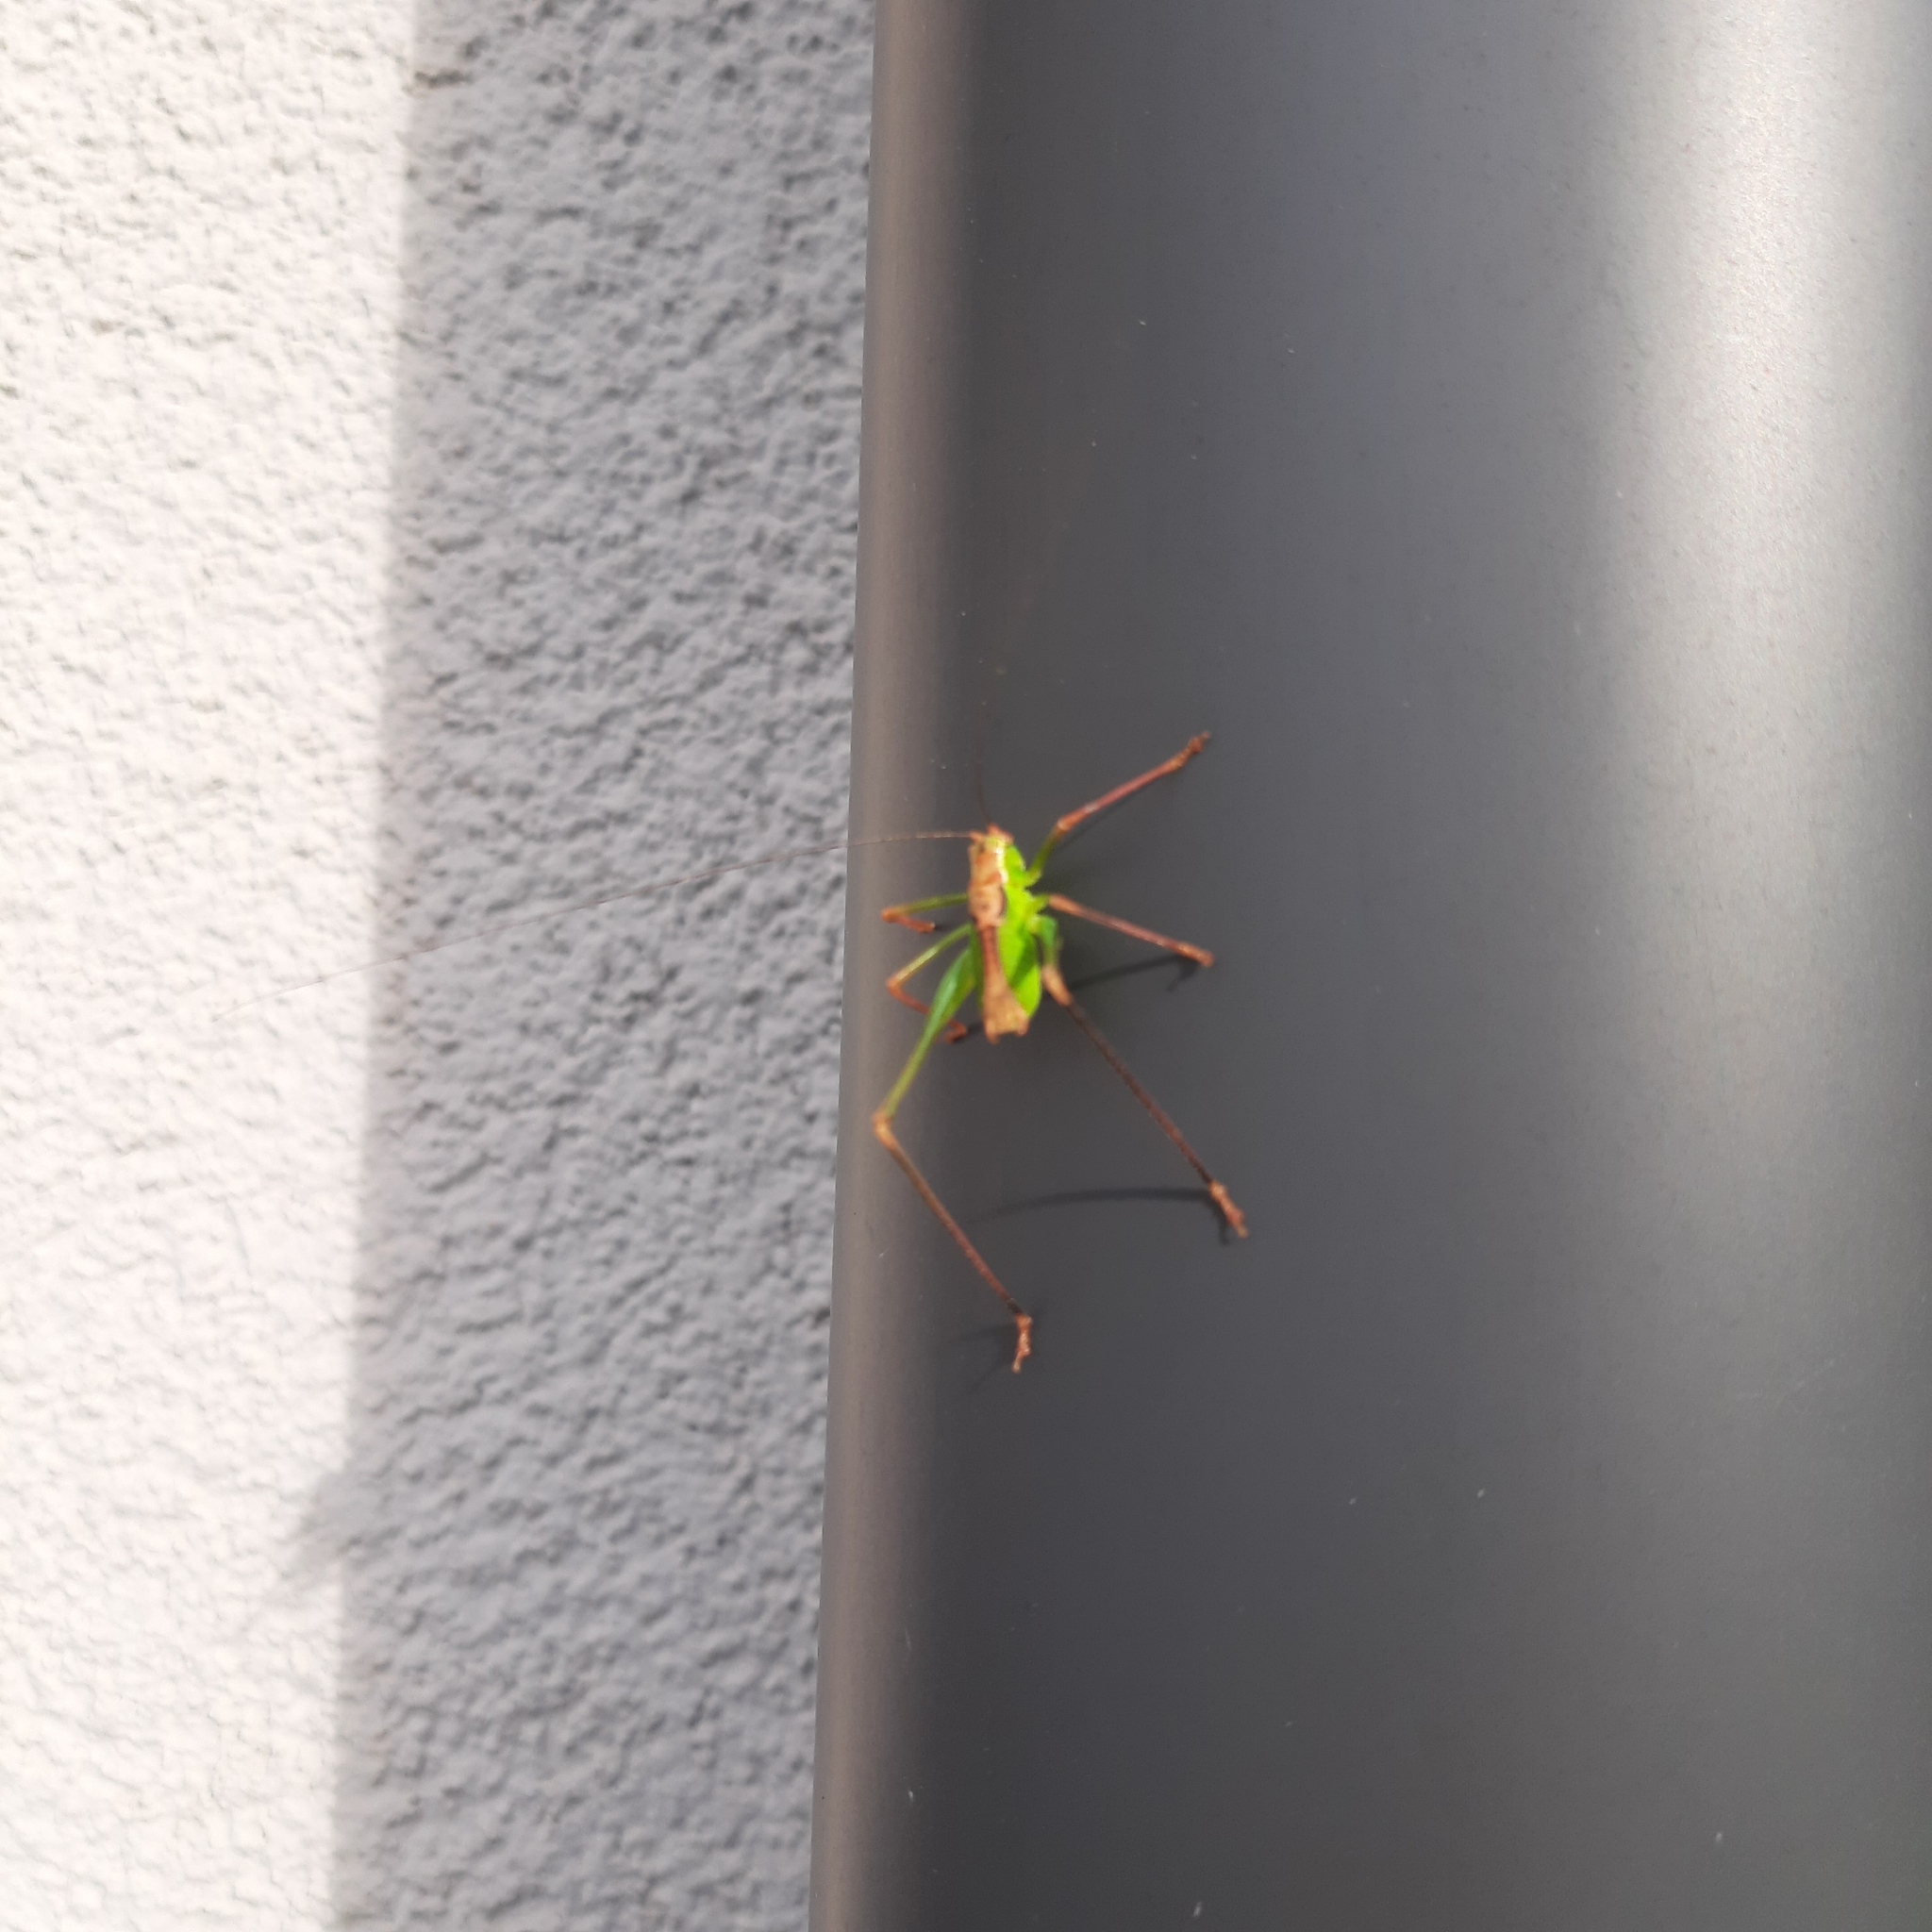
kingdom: Animalia
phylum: Arthropoda
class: Insecta
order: Orthoptera
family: Tettigoniidae
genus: Leptophyes
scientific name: Leptophyes punctatissima
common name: Speckled bush-cricket
